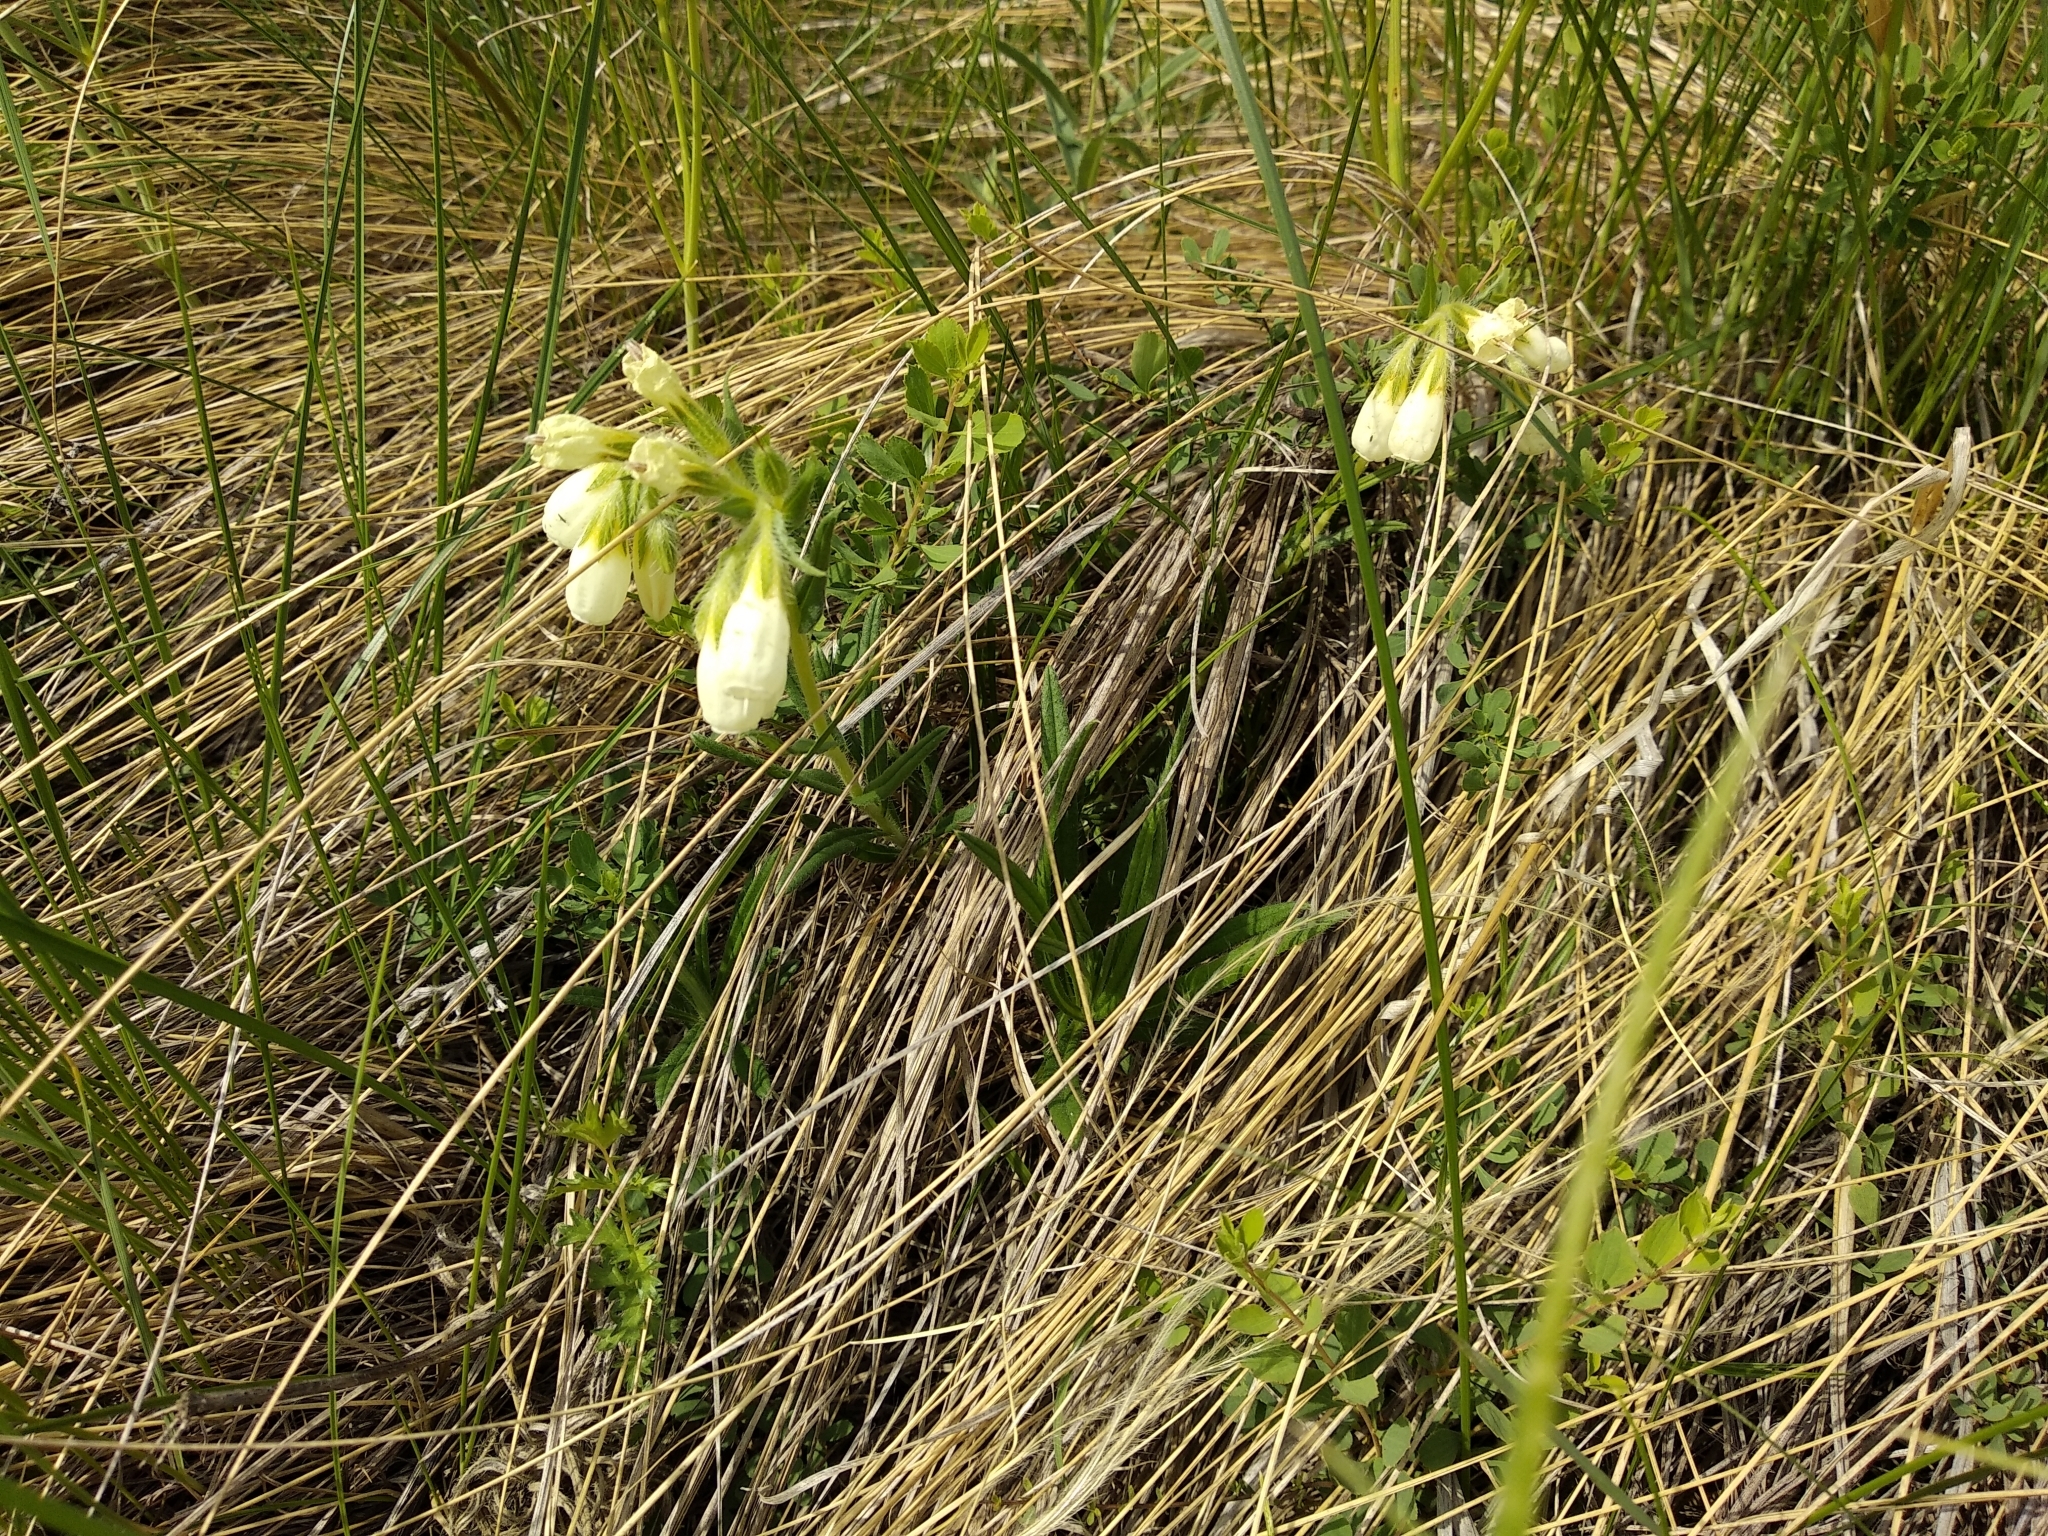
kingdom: Plantae
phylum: Tracheophyta
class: Magnoliopsida
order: Boraginales
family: Boraginaceae
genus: Onosma
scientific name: Onosma simplicissima
